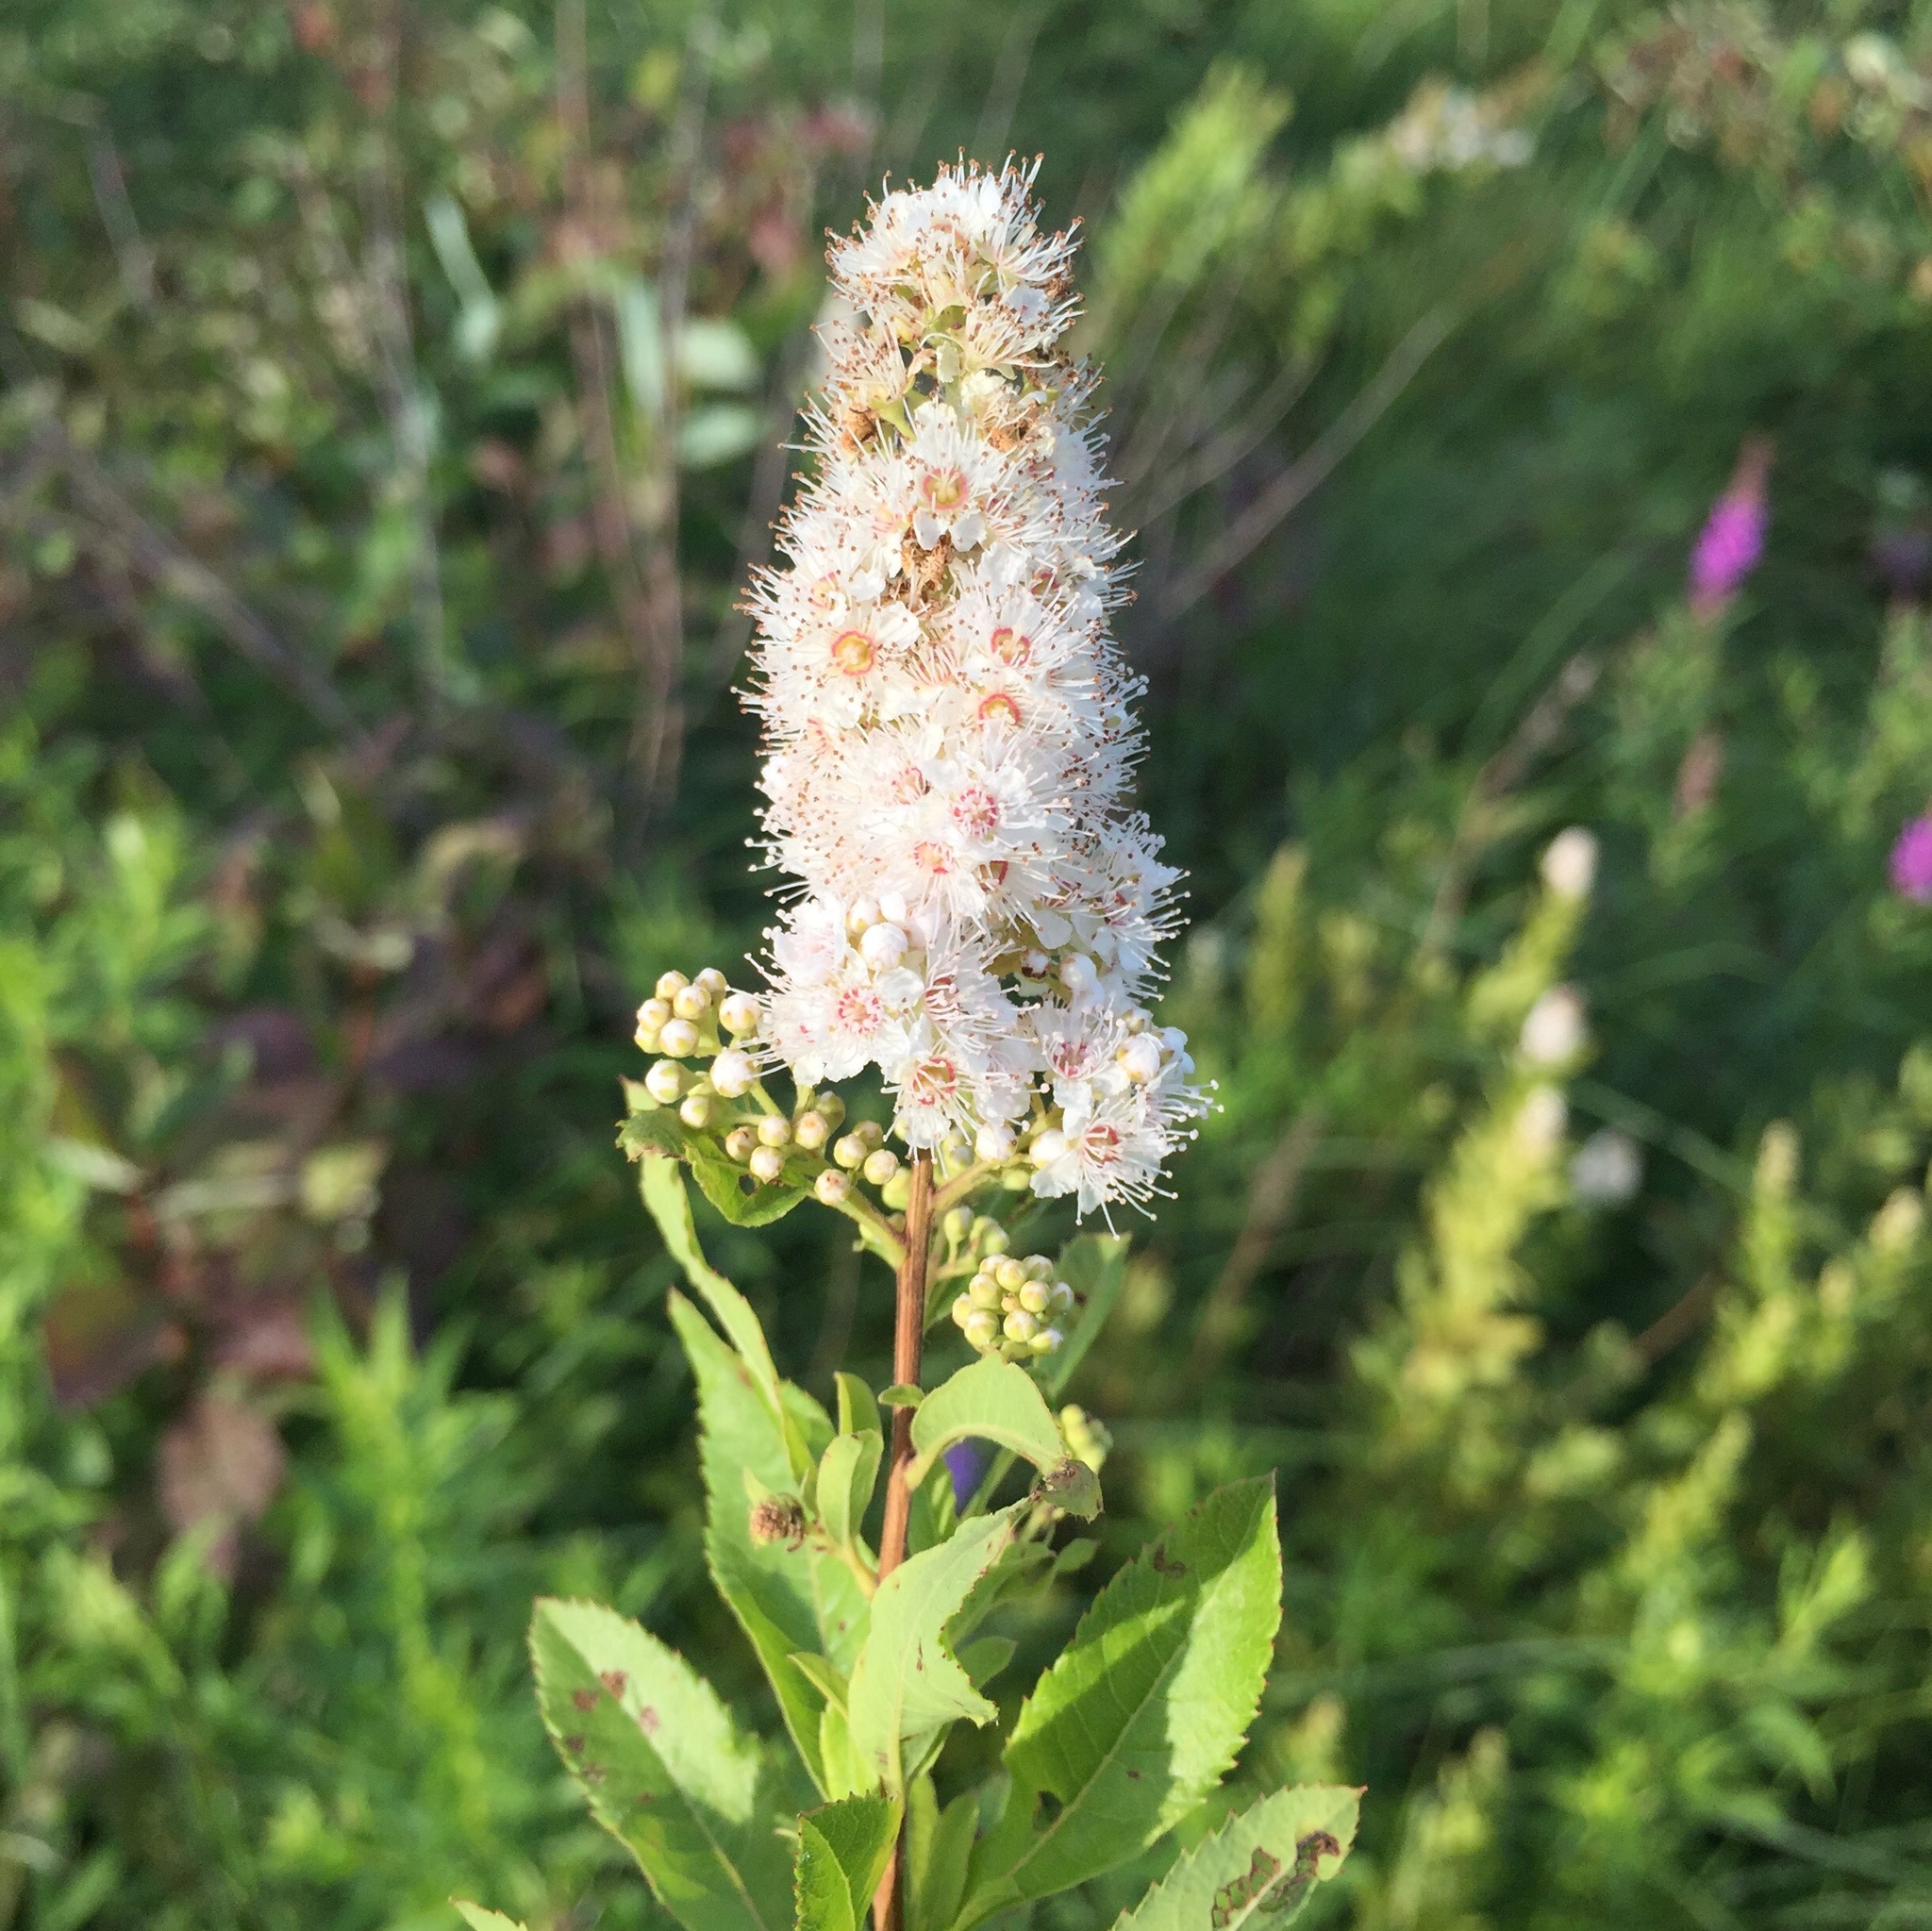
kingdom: Plantae
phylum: Tracheophyta
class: Magnoliopsida
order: Rosales
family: Rosaceae
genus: Spiraea
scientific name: Spiraea alba
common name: Pale bridewort
